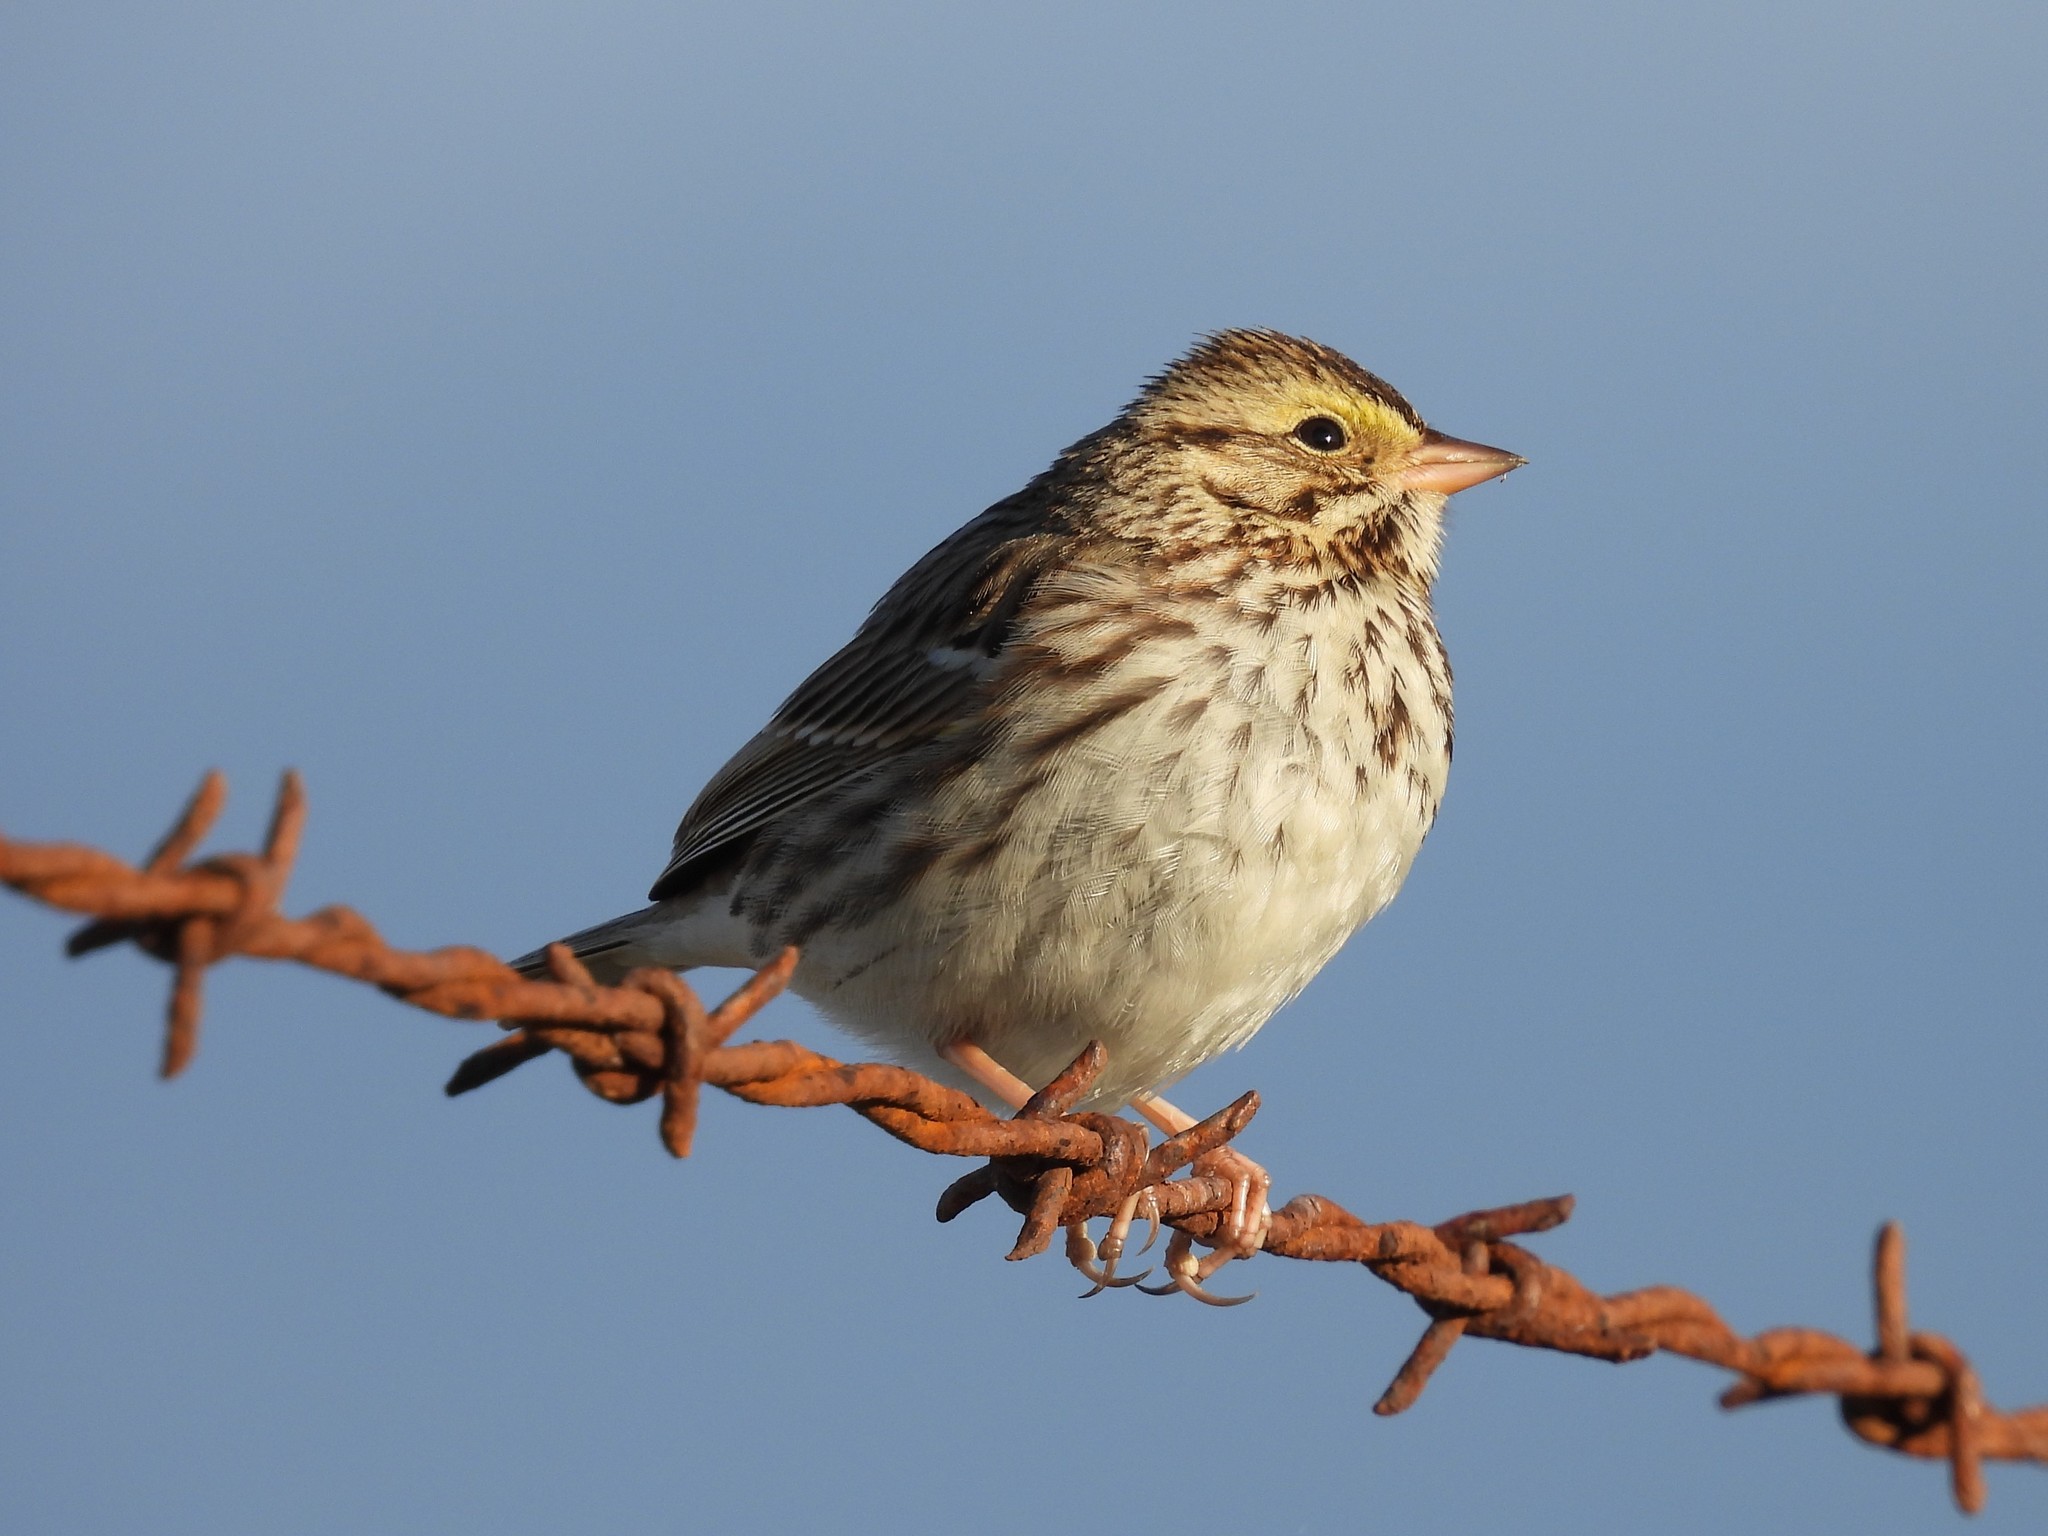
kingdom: Animalia
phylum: Chordata
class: Aves
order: Passeriformes
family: Passerellidae
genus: Passerculus
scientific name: Passerculus sandwichensis
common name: Savannah sparrow
